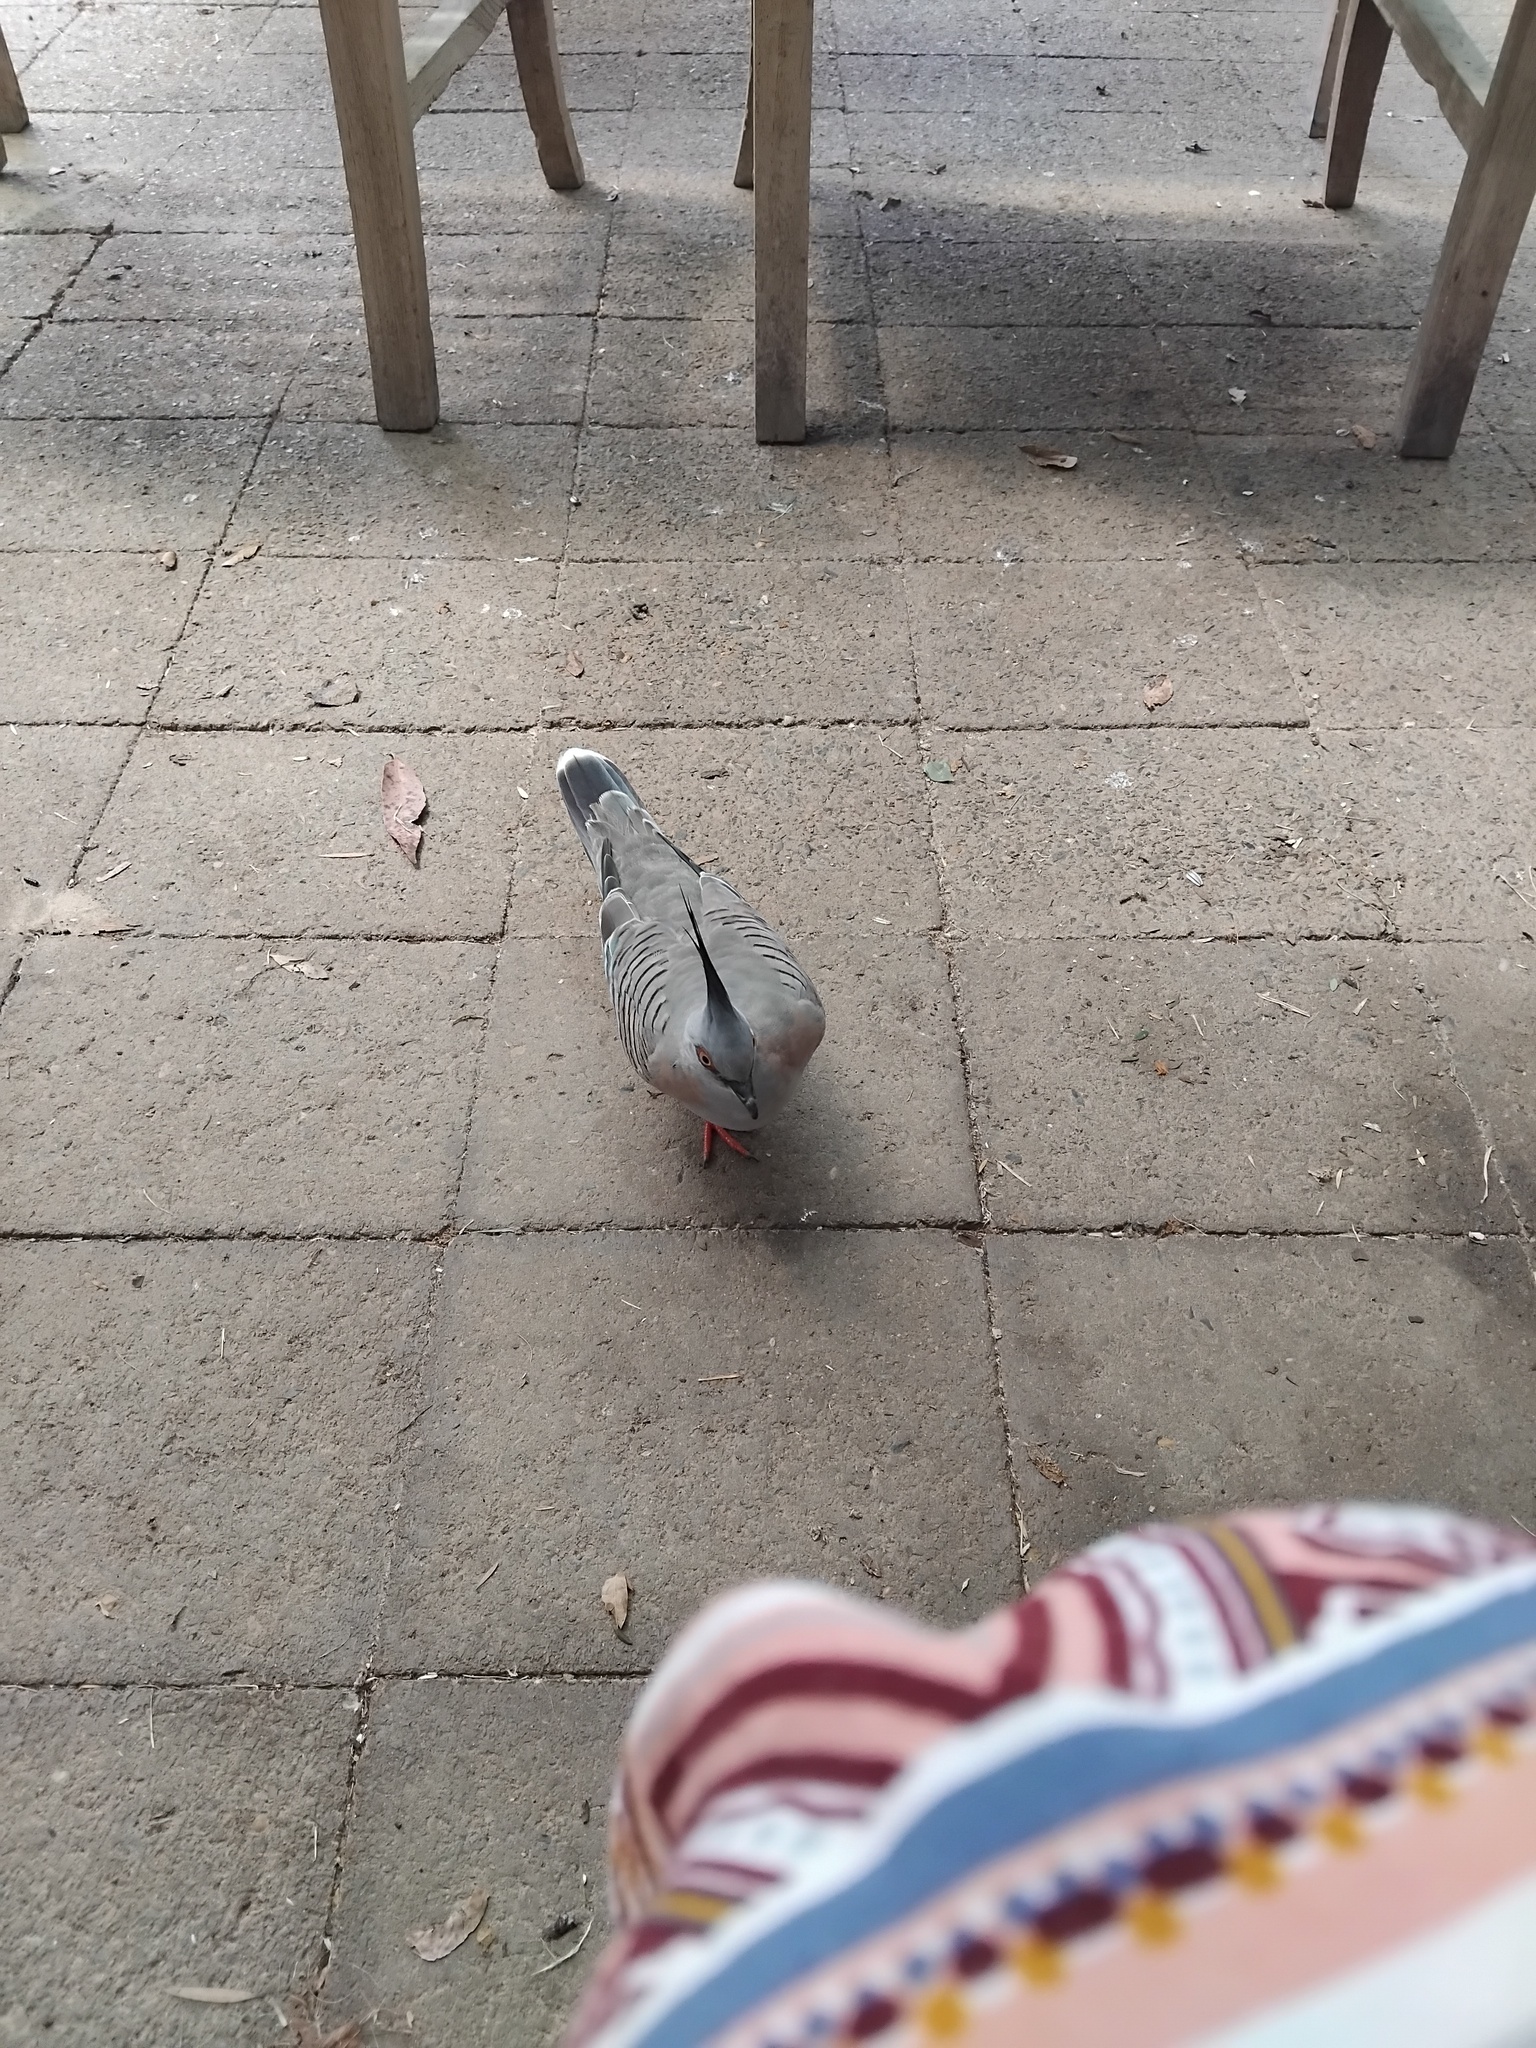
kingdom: Animalia
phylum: Chordata
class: Aves
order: Columbiformes
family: Columbidae
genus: Ocyphaps
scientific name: Ocyphaps lophotes
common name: Crested pigeon
